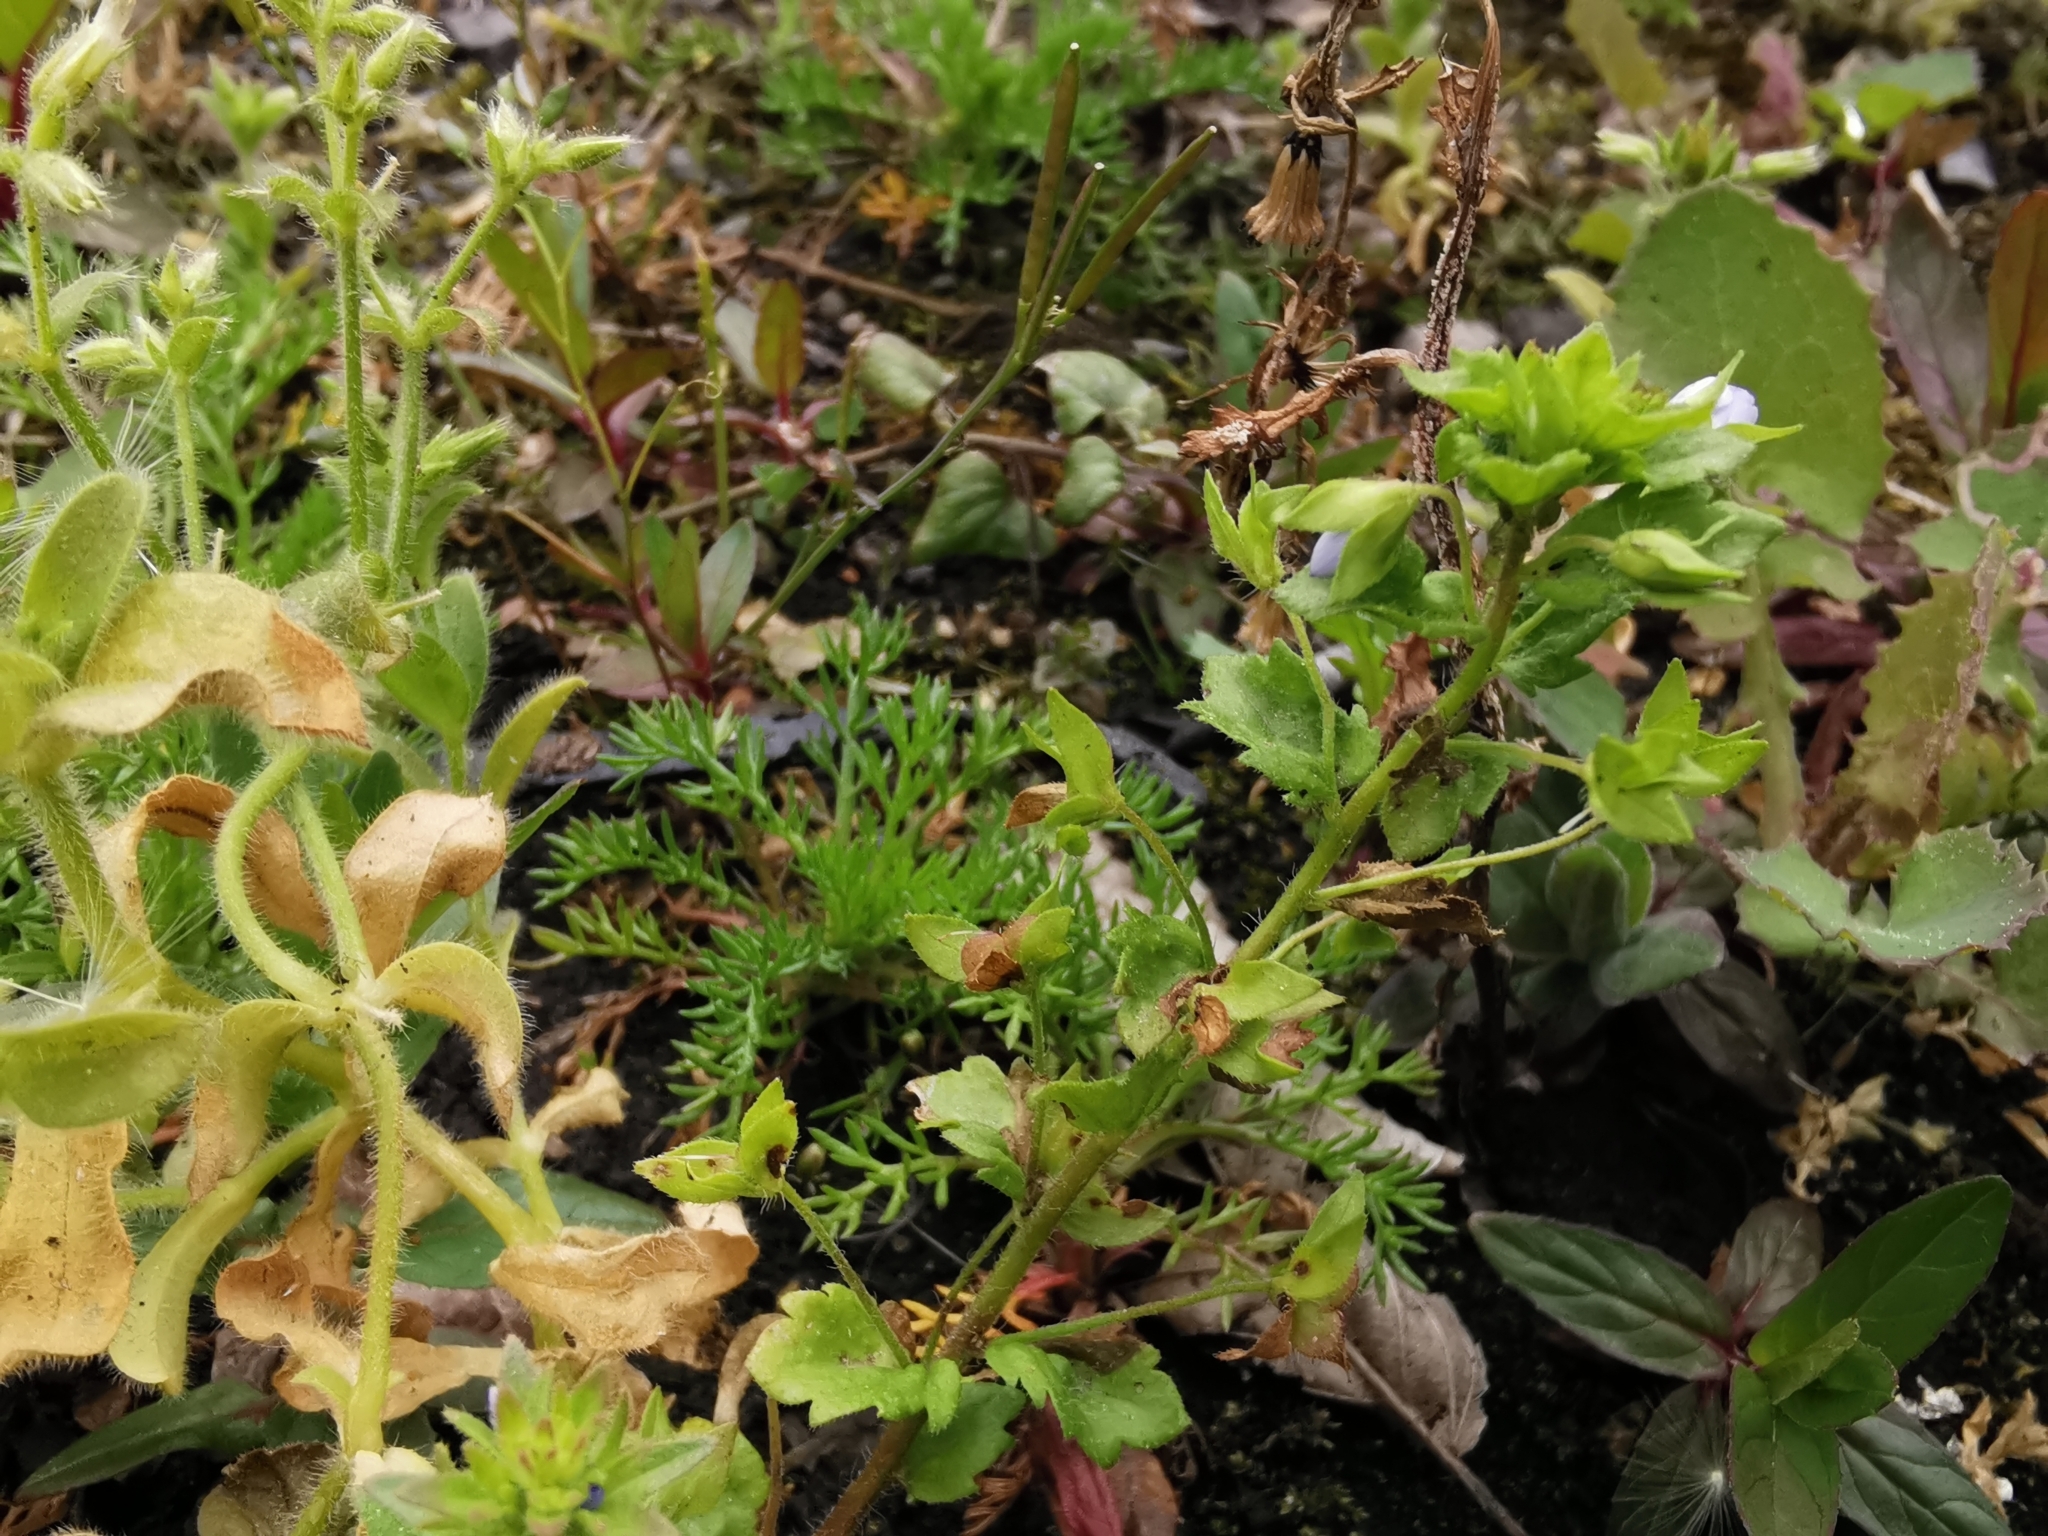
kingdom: Plantae
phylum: Tracheophyta
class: Magnoliopsida
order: Lamiales
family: Plantaginaceae
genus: Veronica
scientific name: Veronica hederifolia
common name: Ivy-leaved speedwell
